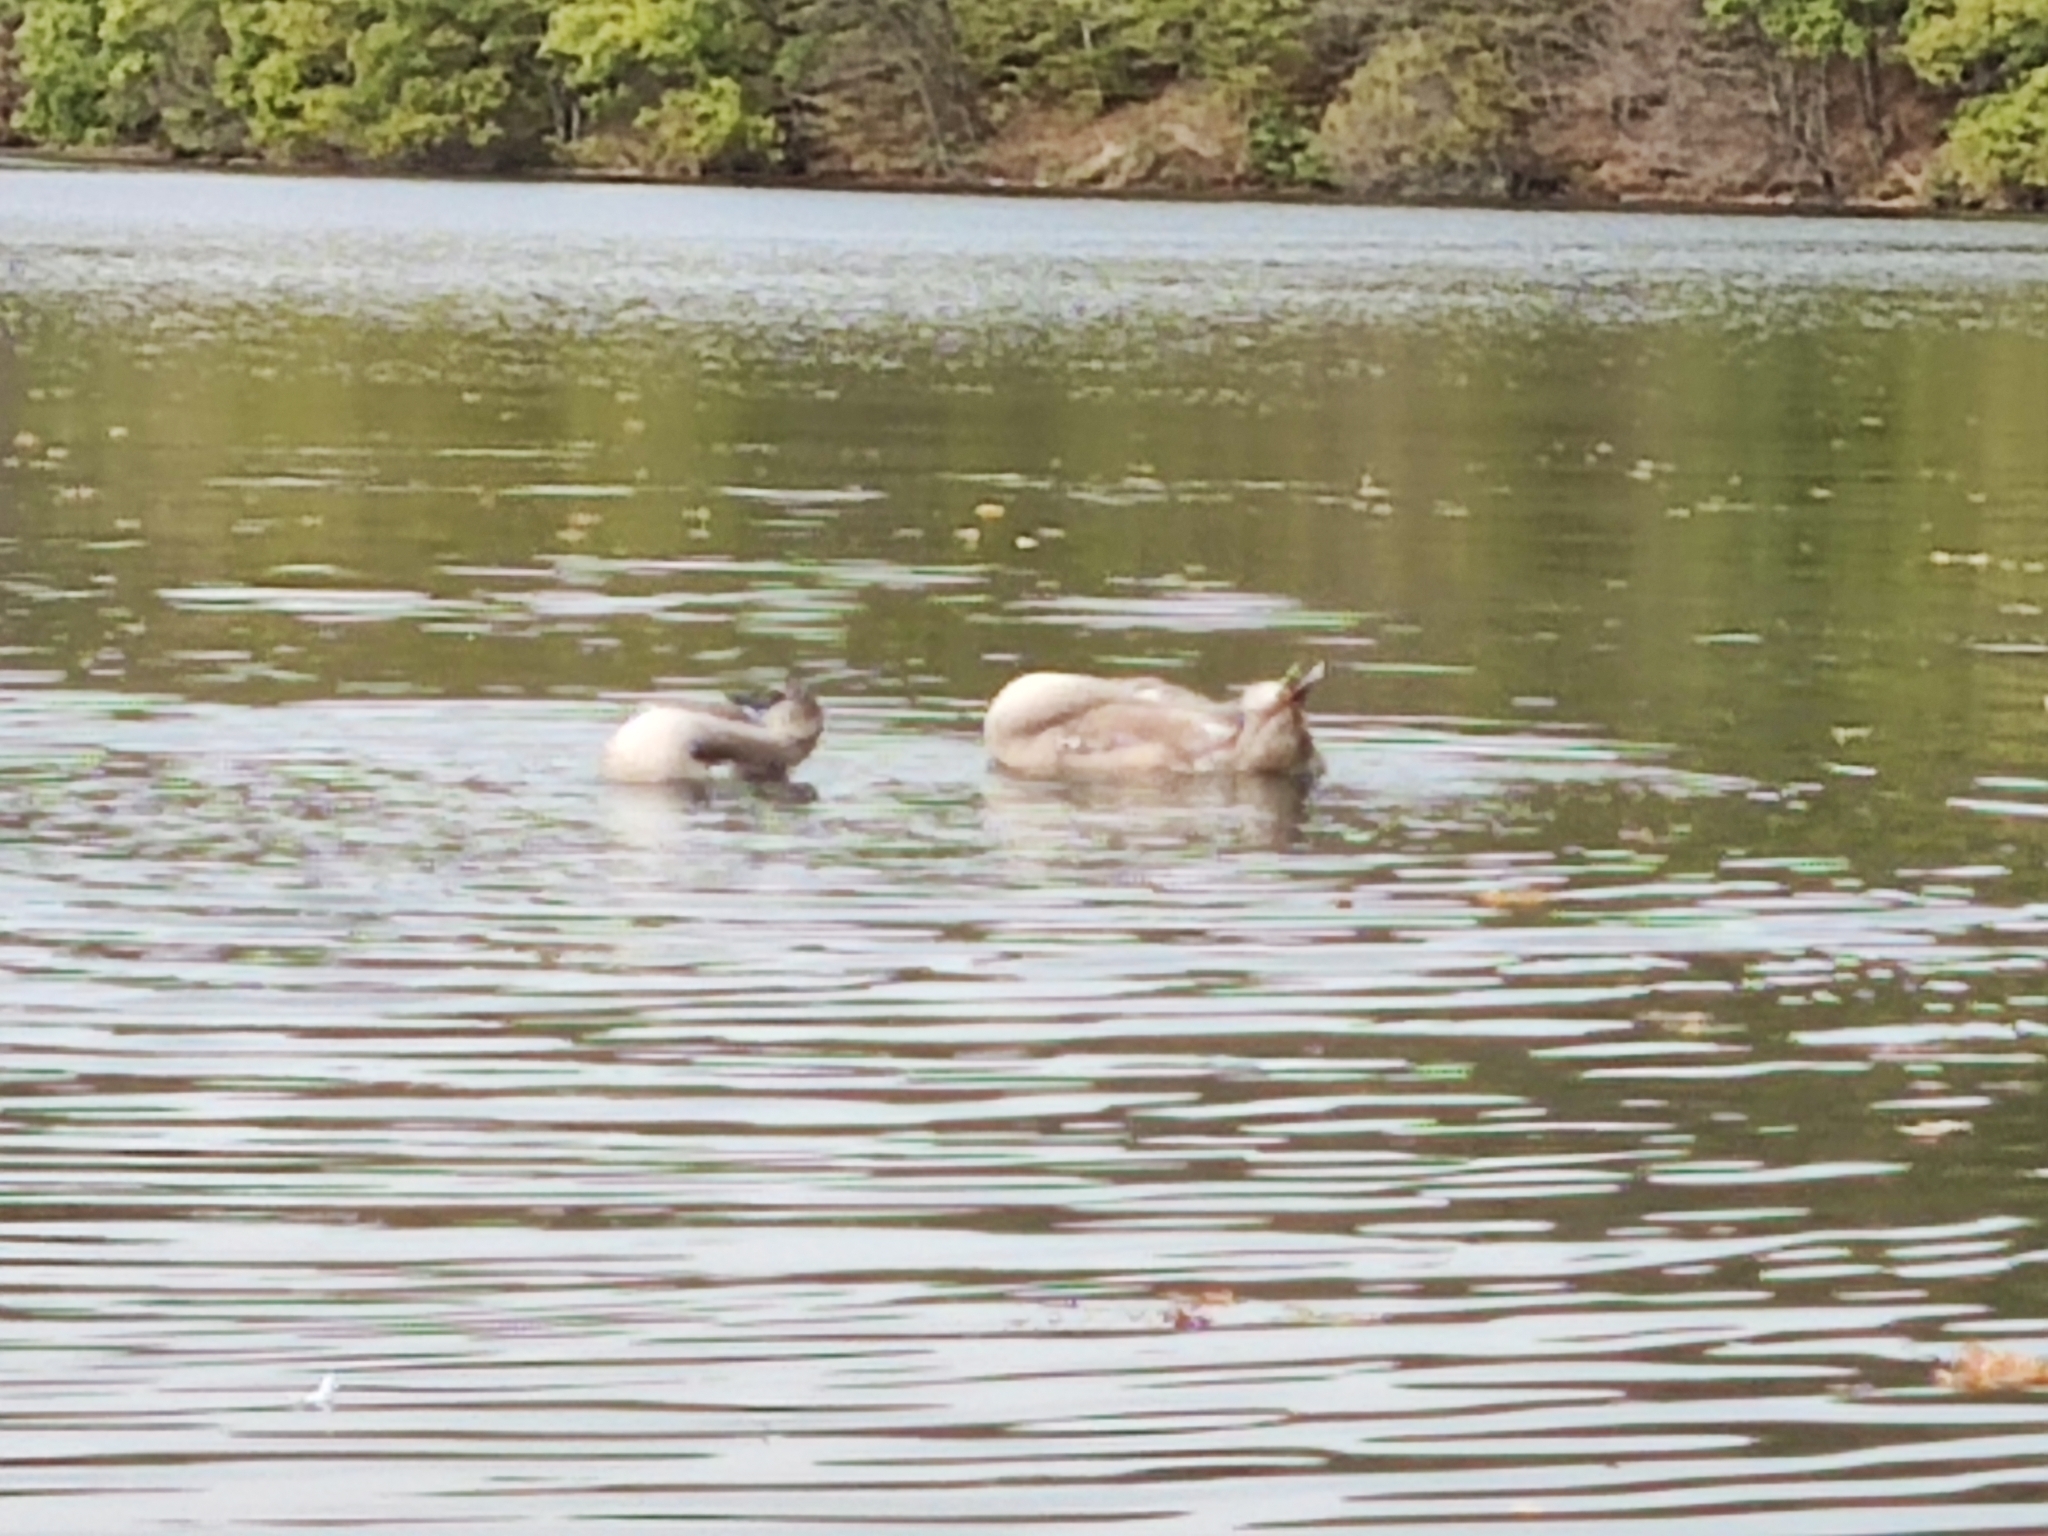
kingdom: Animalia
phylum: Chordata
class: Aves
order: Anseriformes
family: Anatidae
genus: Cygnus
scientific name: Cygnus olor
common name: Mute swan
